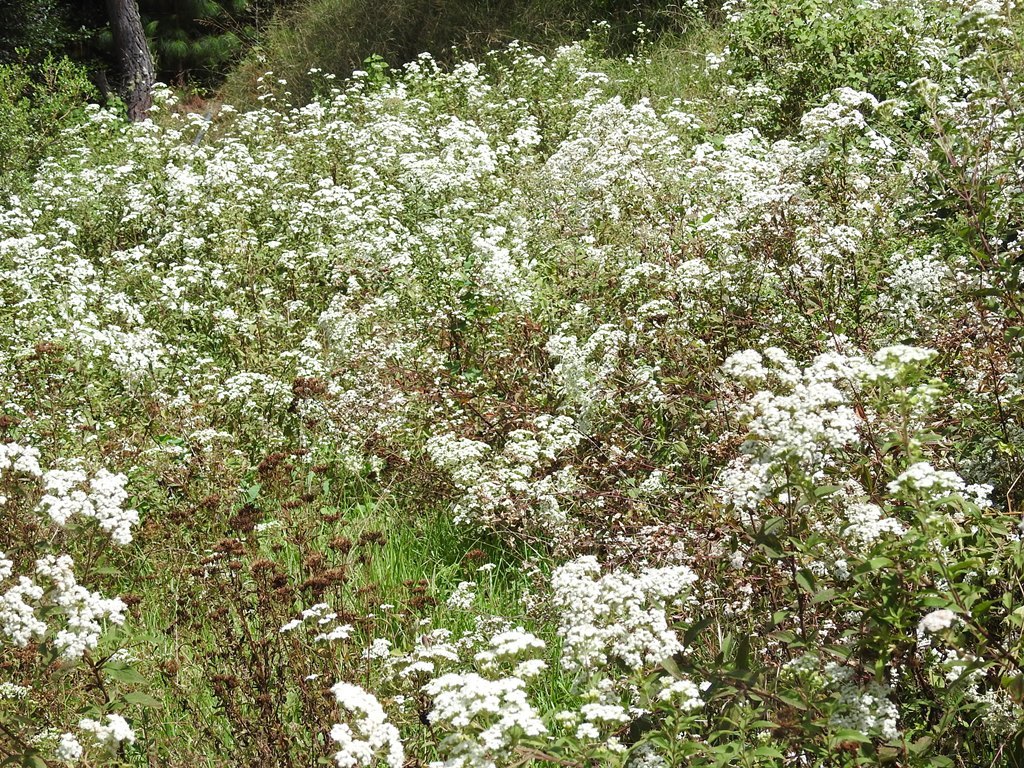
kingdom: Plantae
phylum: Tracheophyta
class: Magnoliopsida
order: Asterales
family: Asteraceae
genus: Stevia
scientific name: Stevia ovata
